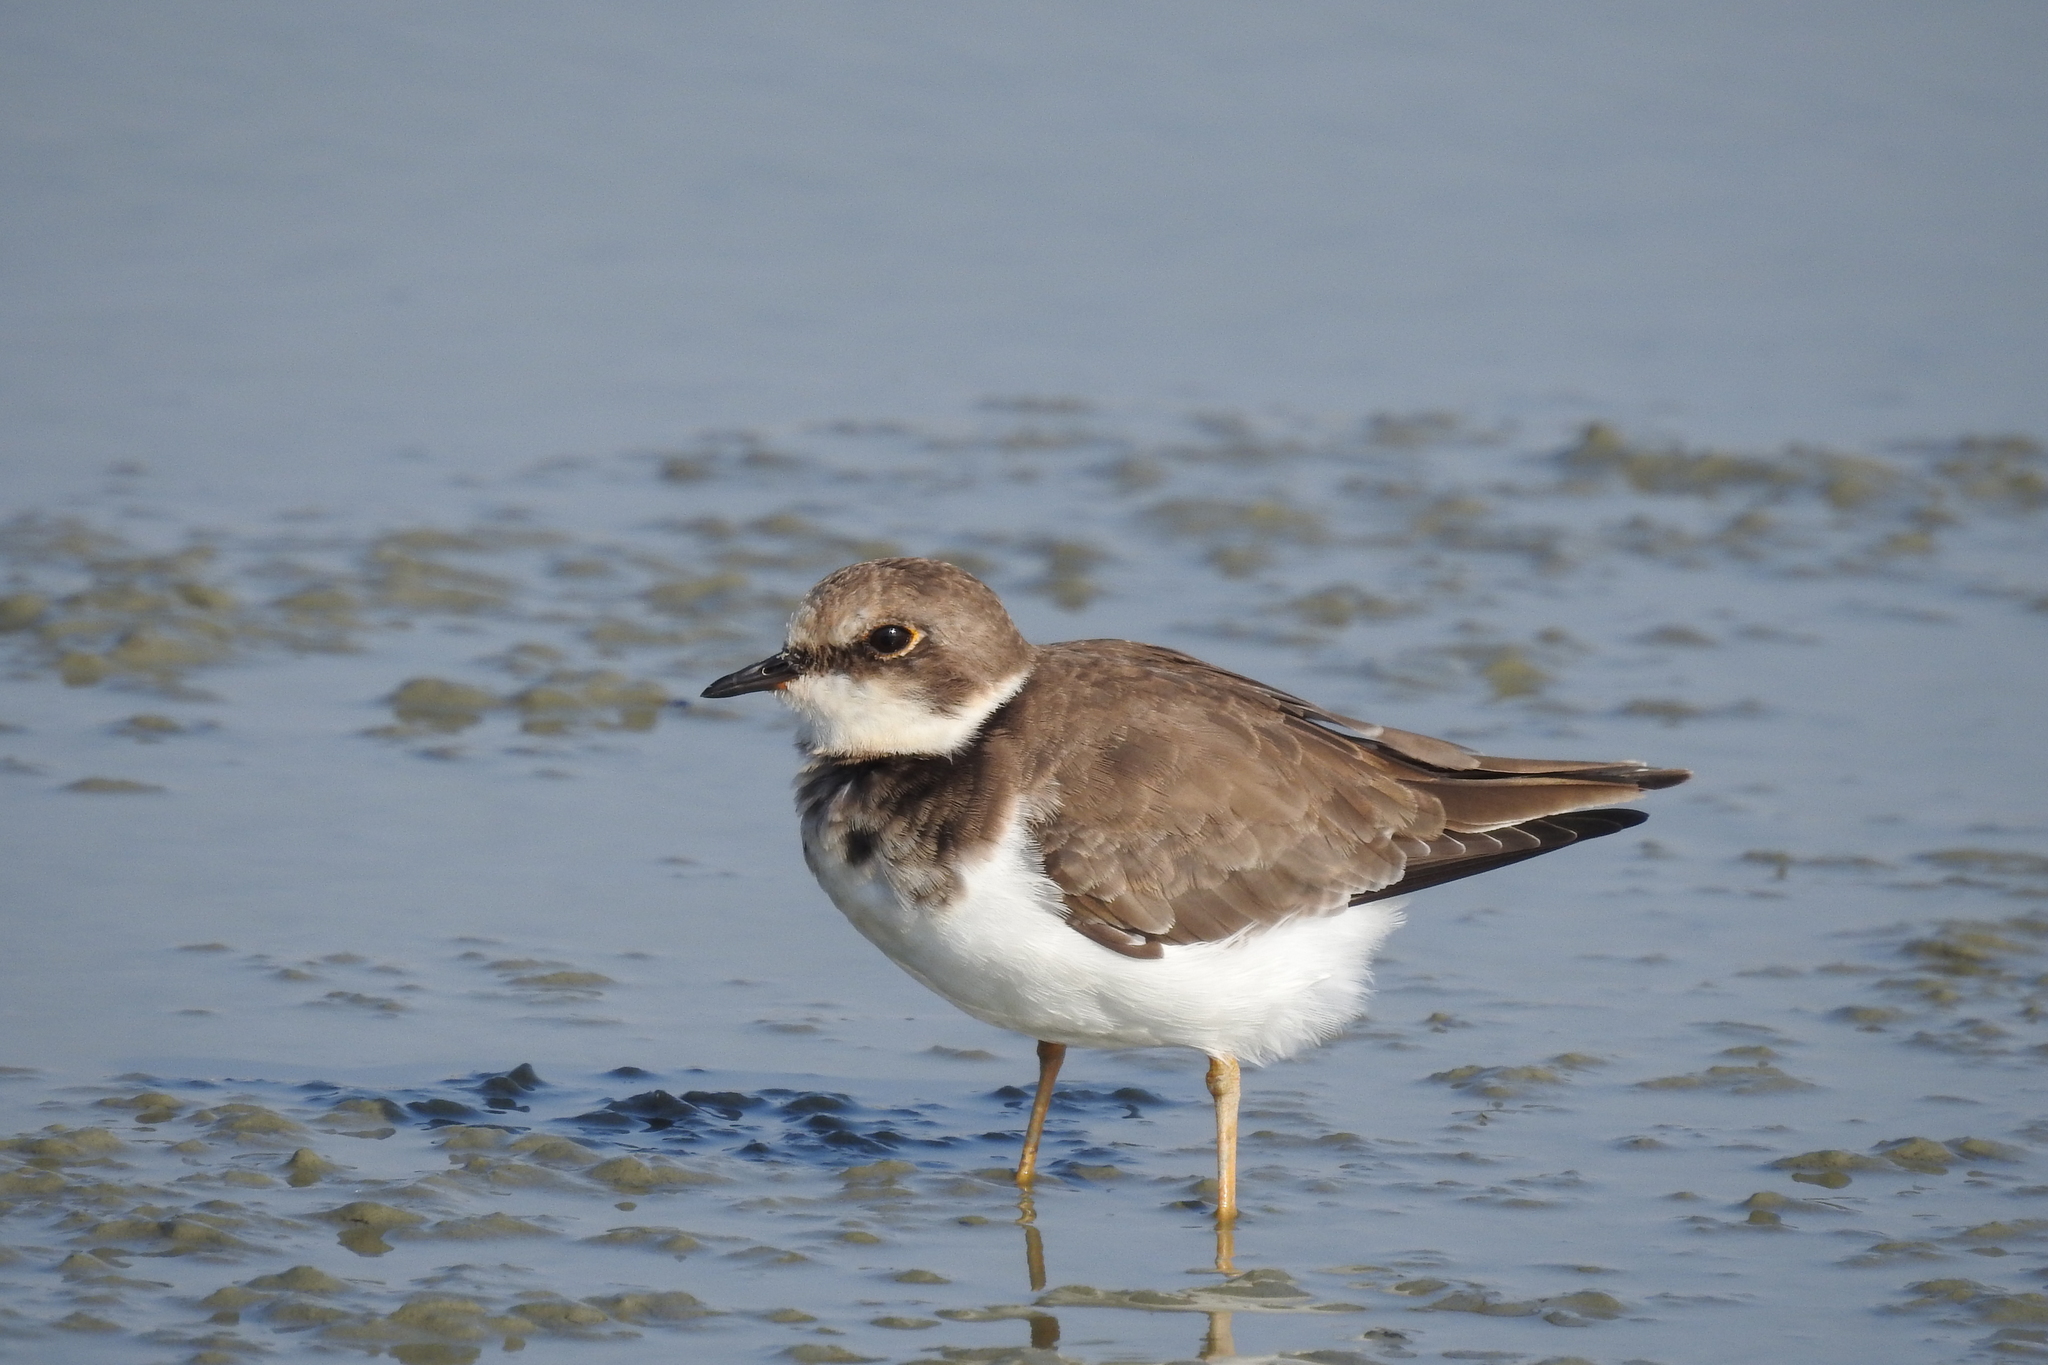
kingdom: Animalia
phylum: Chordata
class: Aves
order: Charadriiformes
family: Charadriidae
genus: Charadrius
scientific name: Charadrius dubius
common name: Little ringed plover
